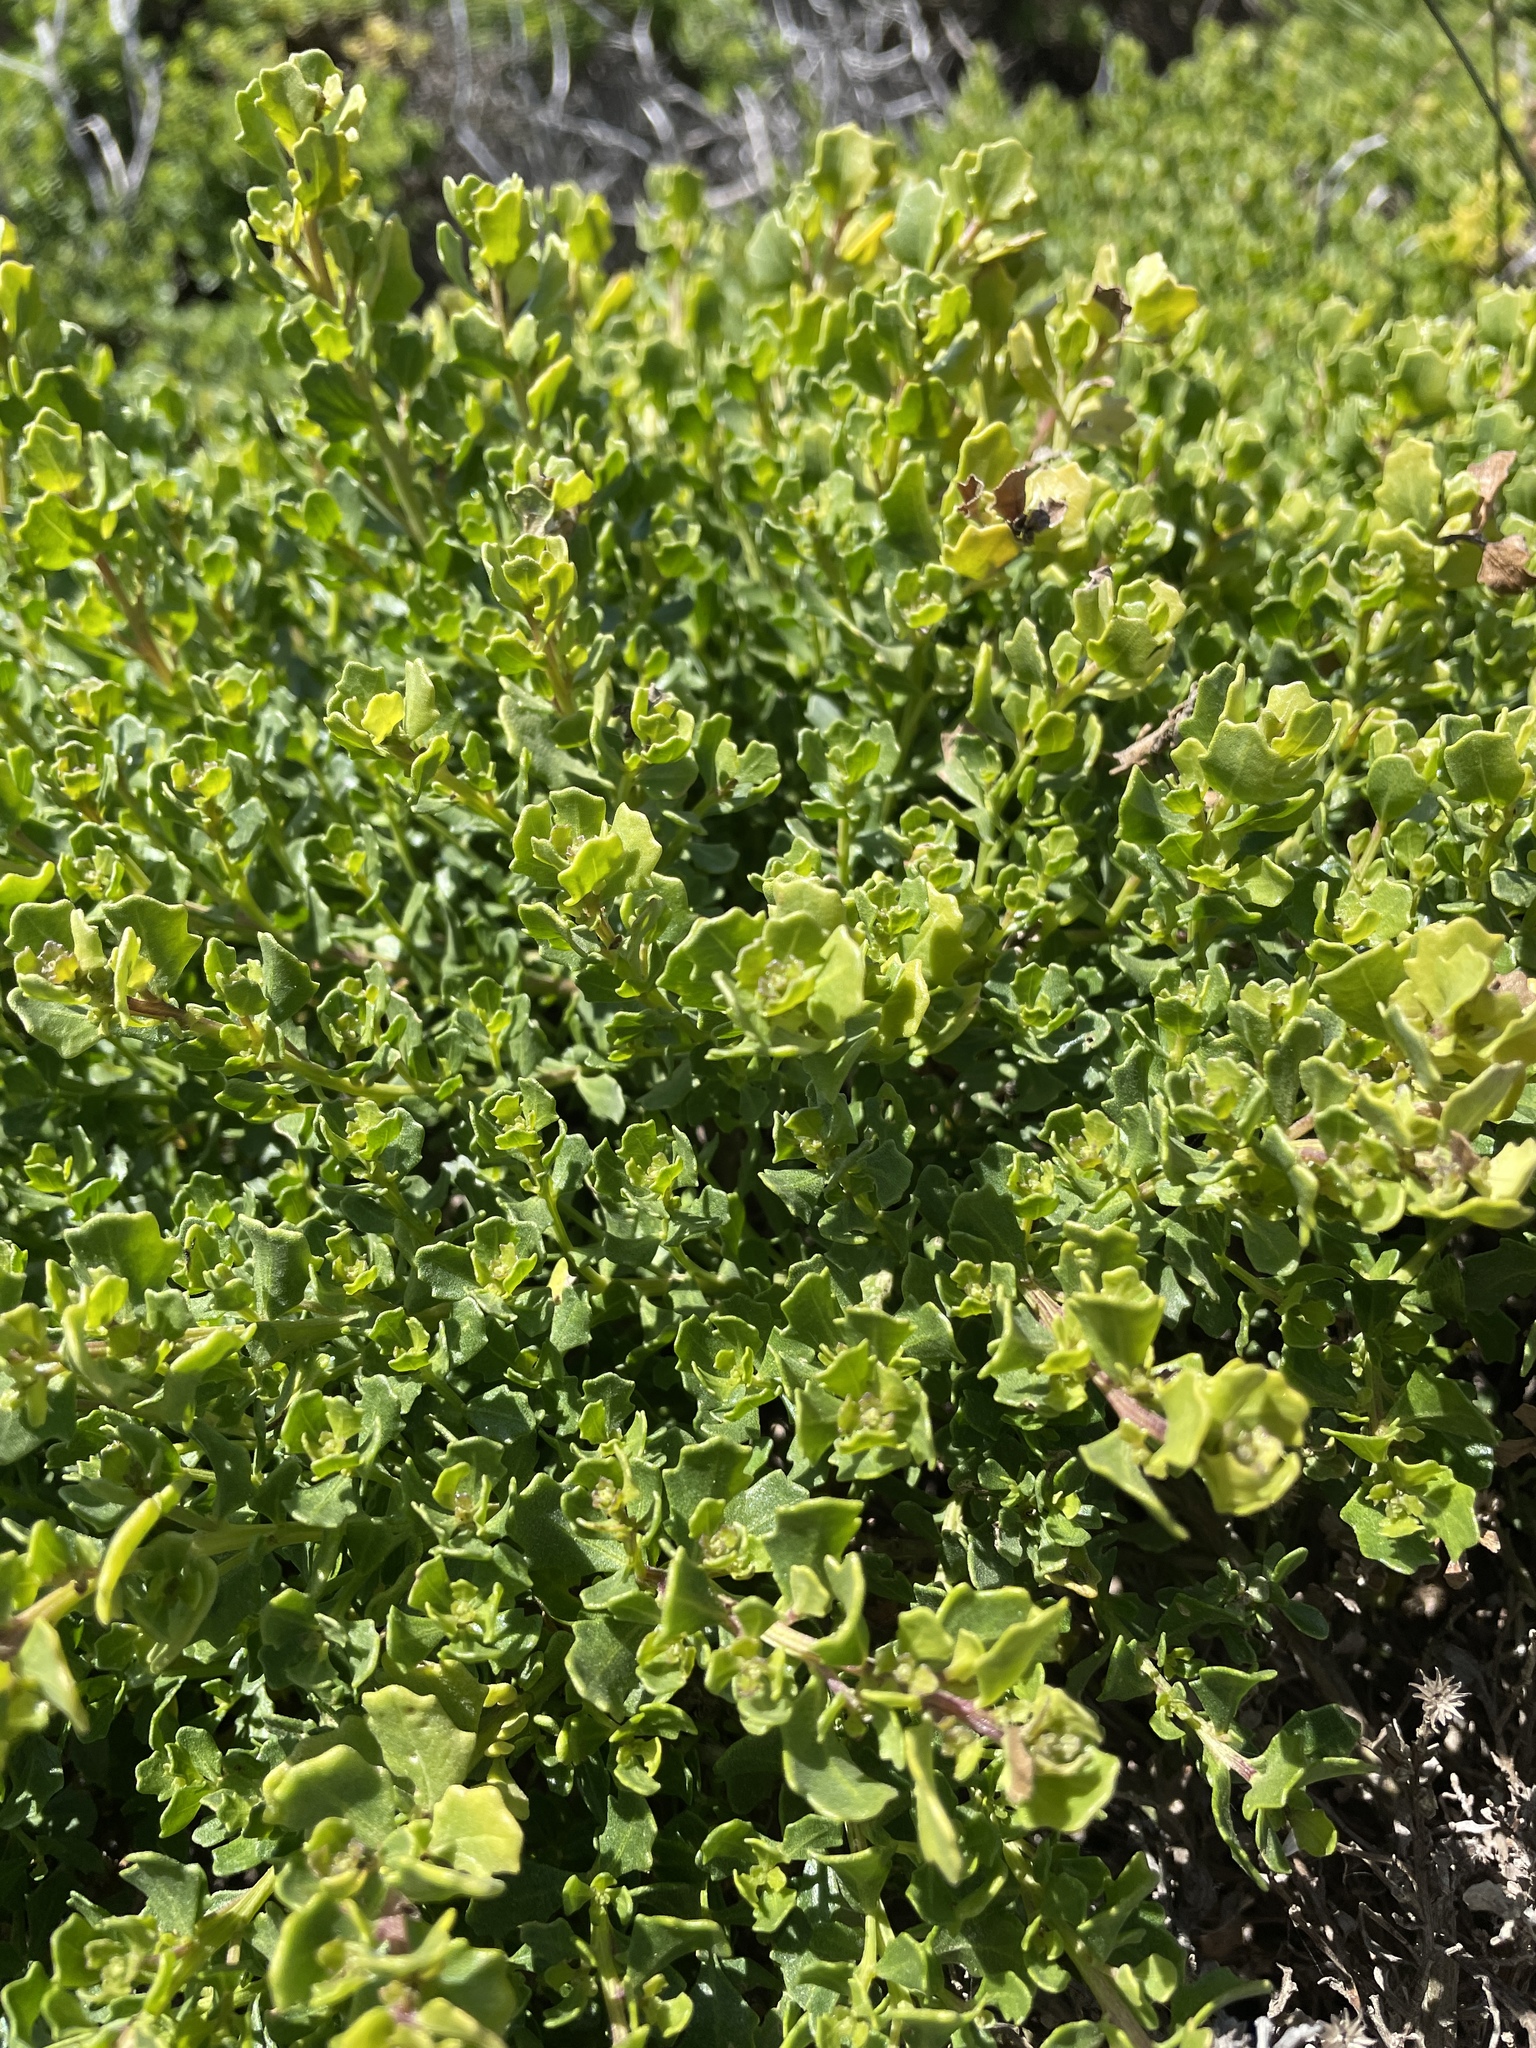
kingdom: Plantae
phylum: Tracheophyta
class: Magnoliopsida
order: Asterales
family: Asteraceae
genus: Baccharis
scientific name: Baccharis pilularis
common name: Coyotebrush
